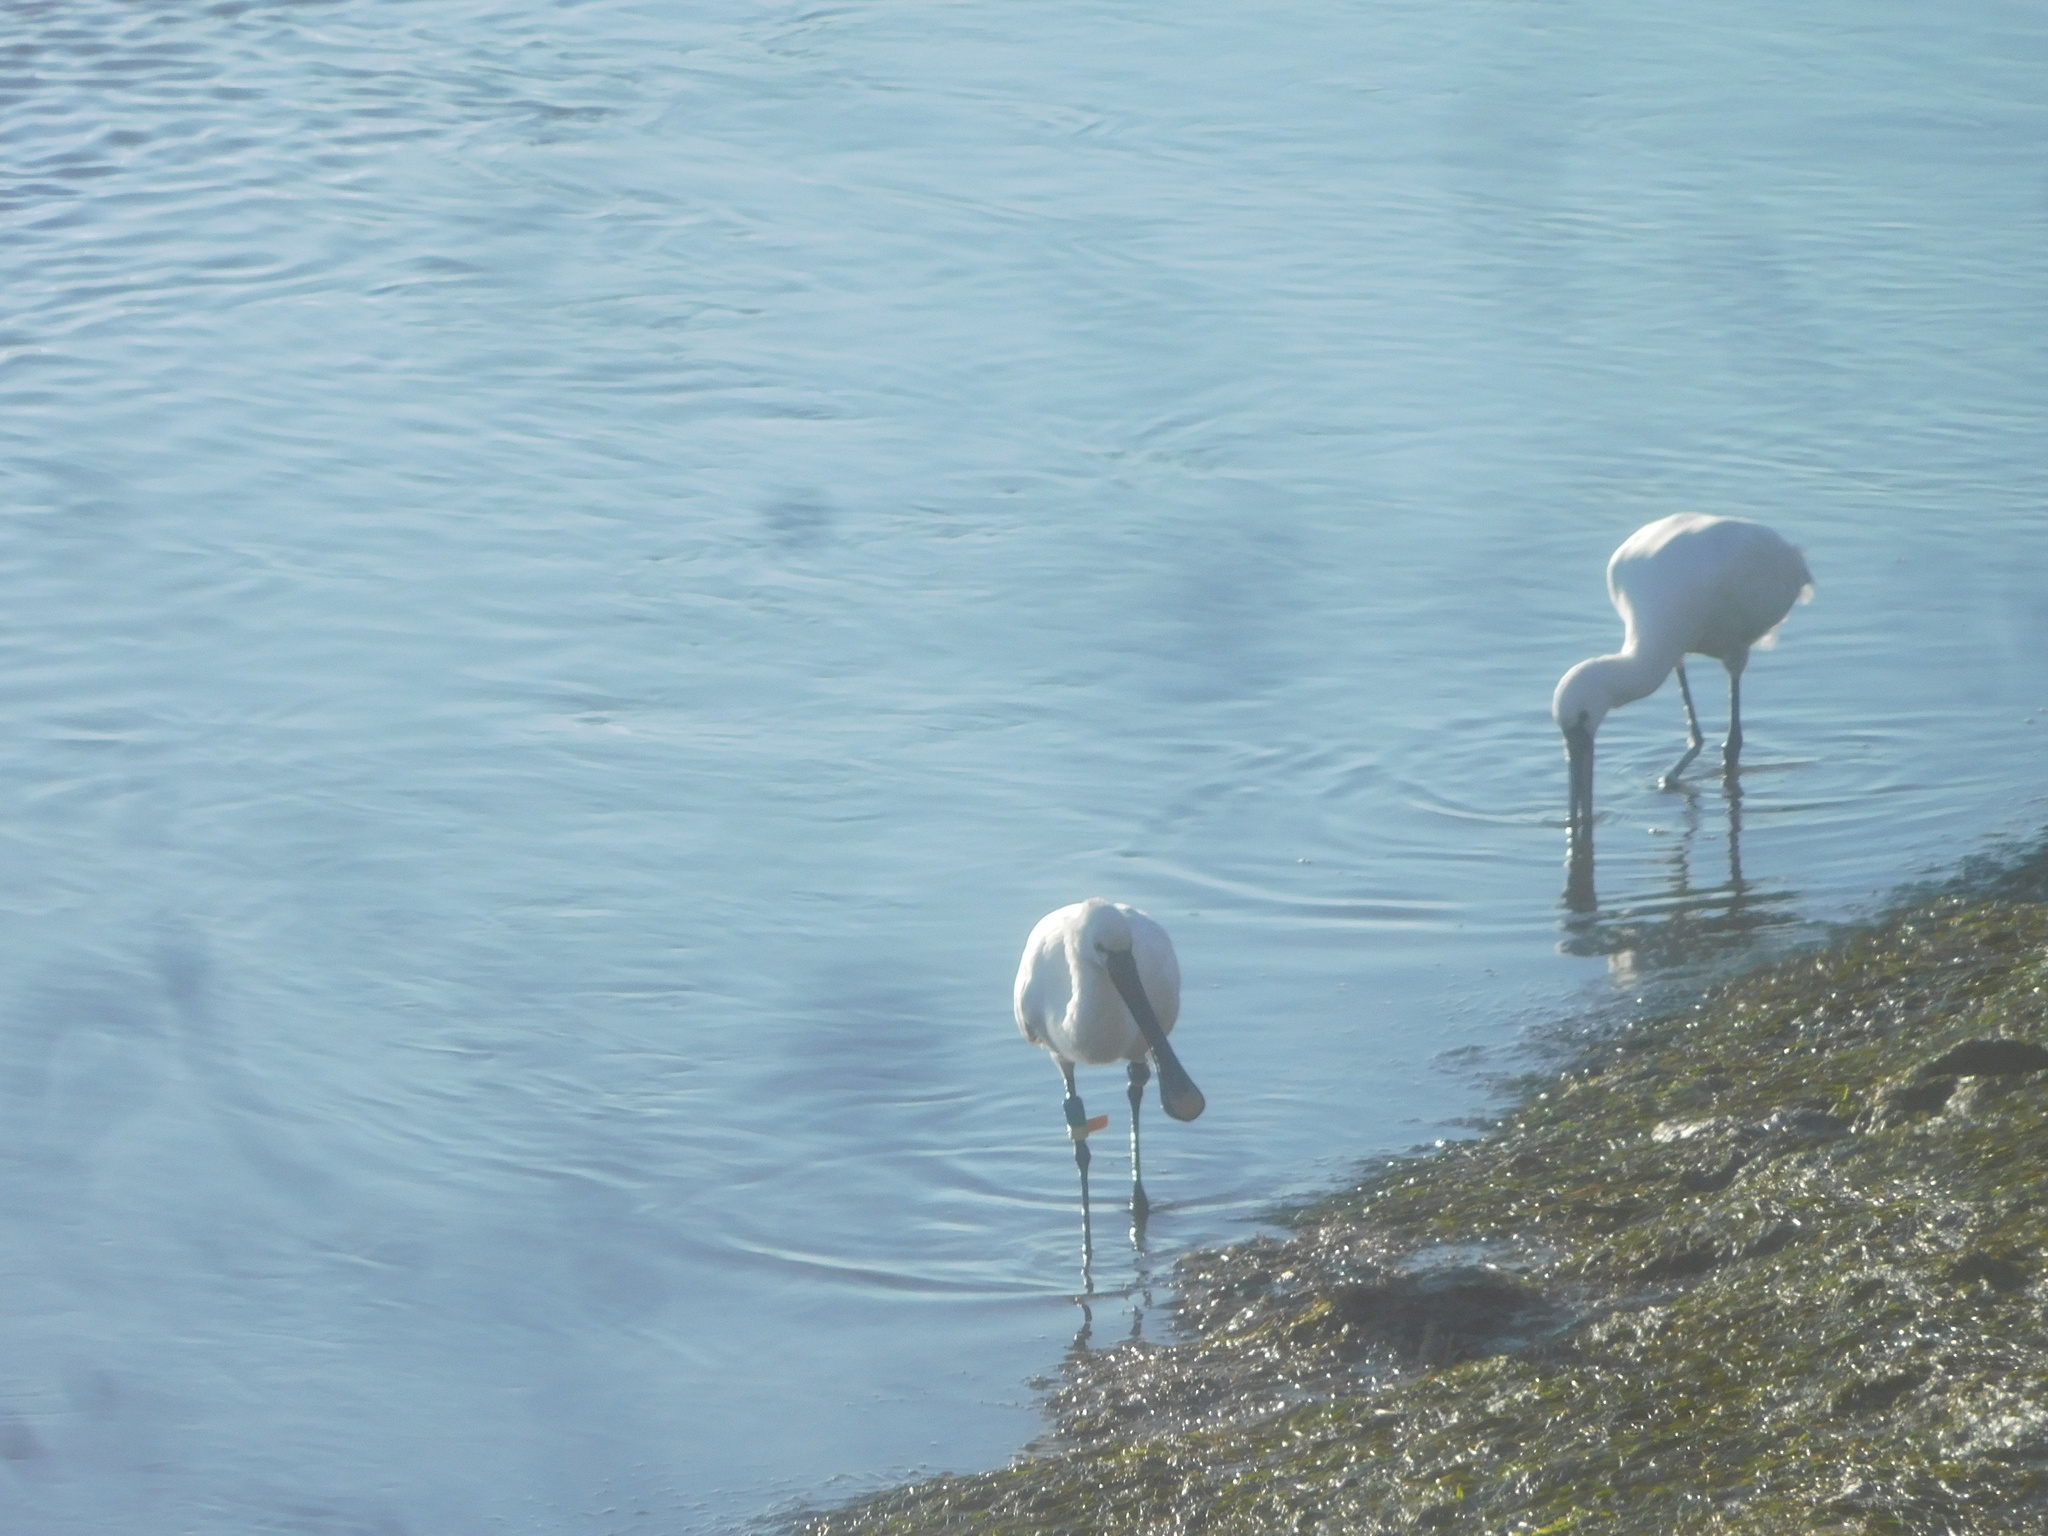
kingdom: Animalia
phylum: Chordata
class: Aves
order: Pelecaniformes
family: Threskiornithidae
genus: Platalea
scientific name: Platalea leucorodia
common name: Eurasian spoonbill
